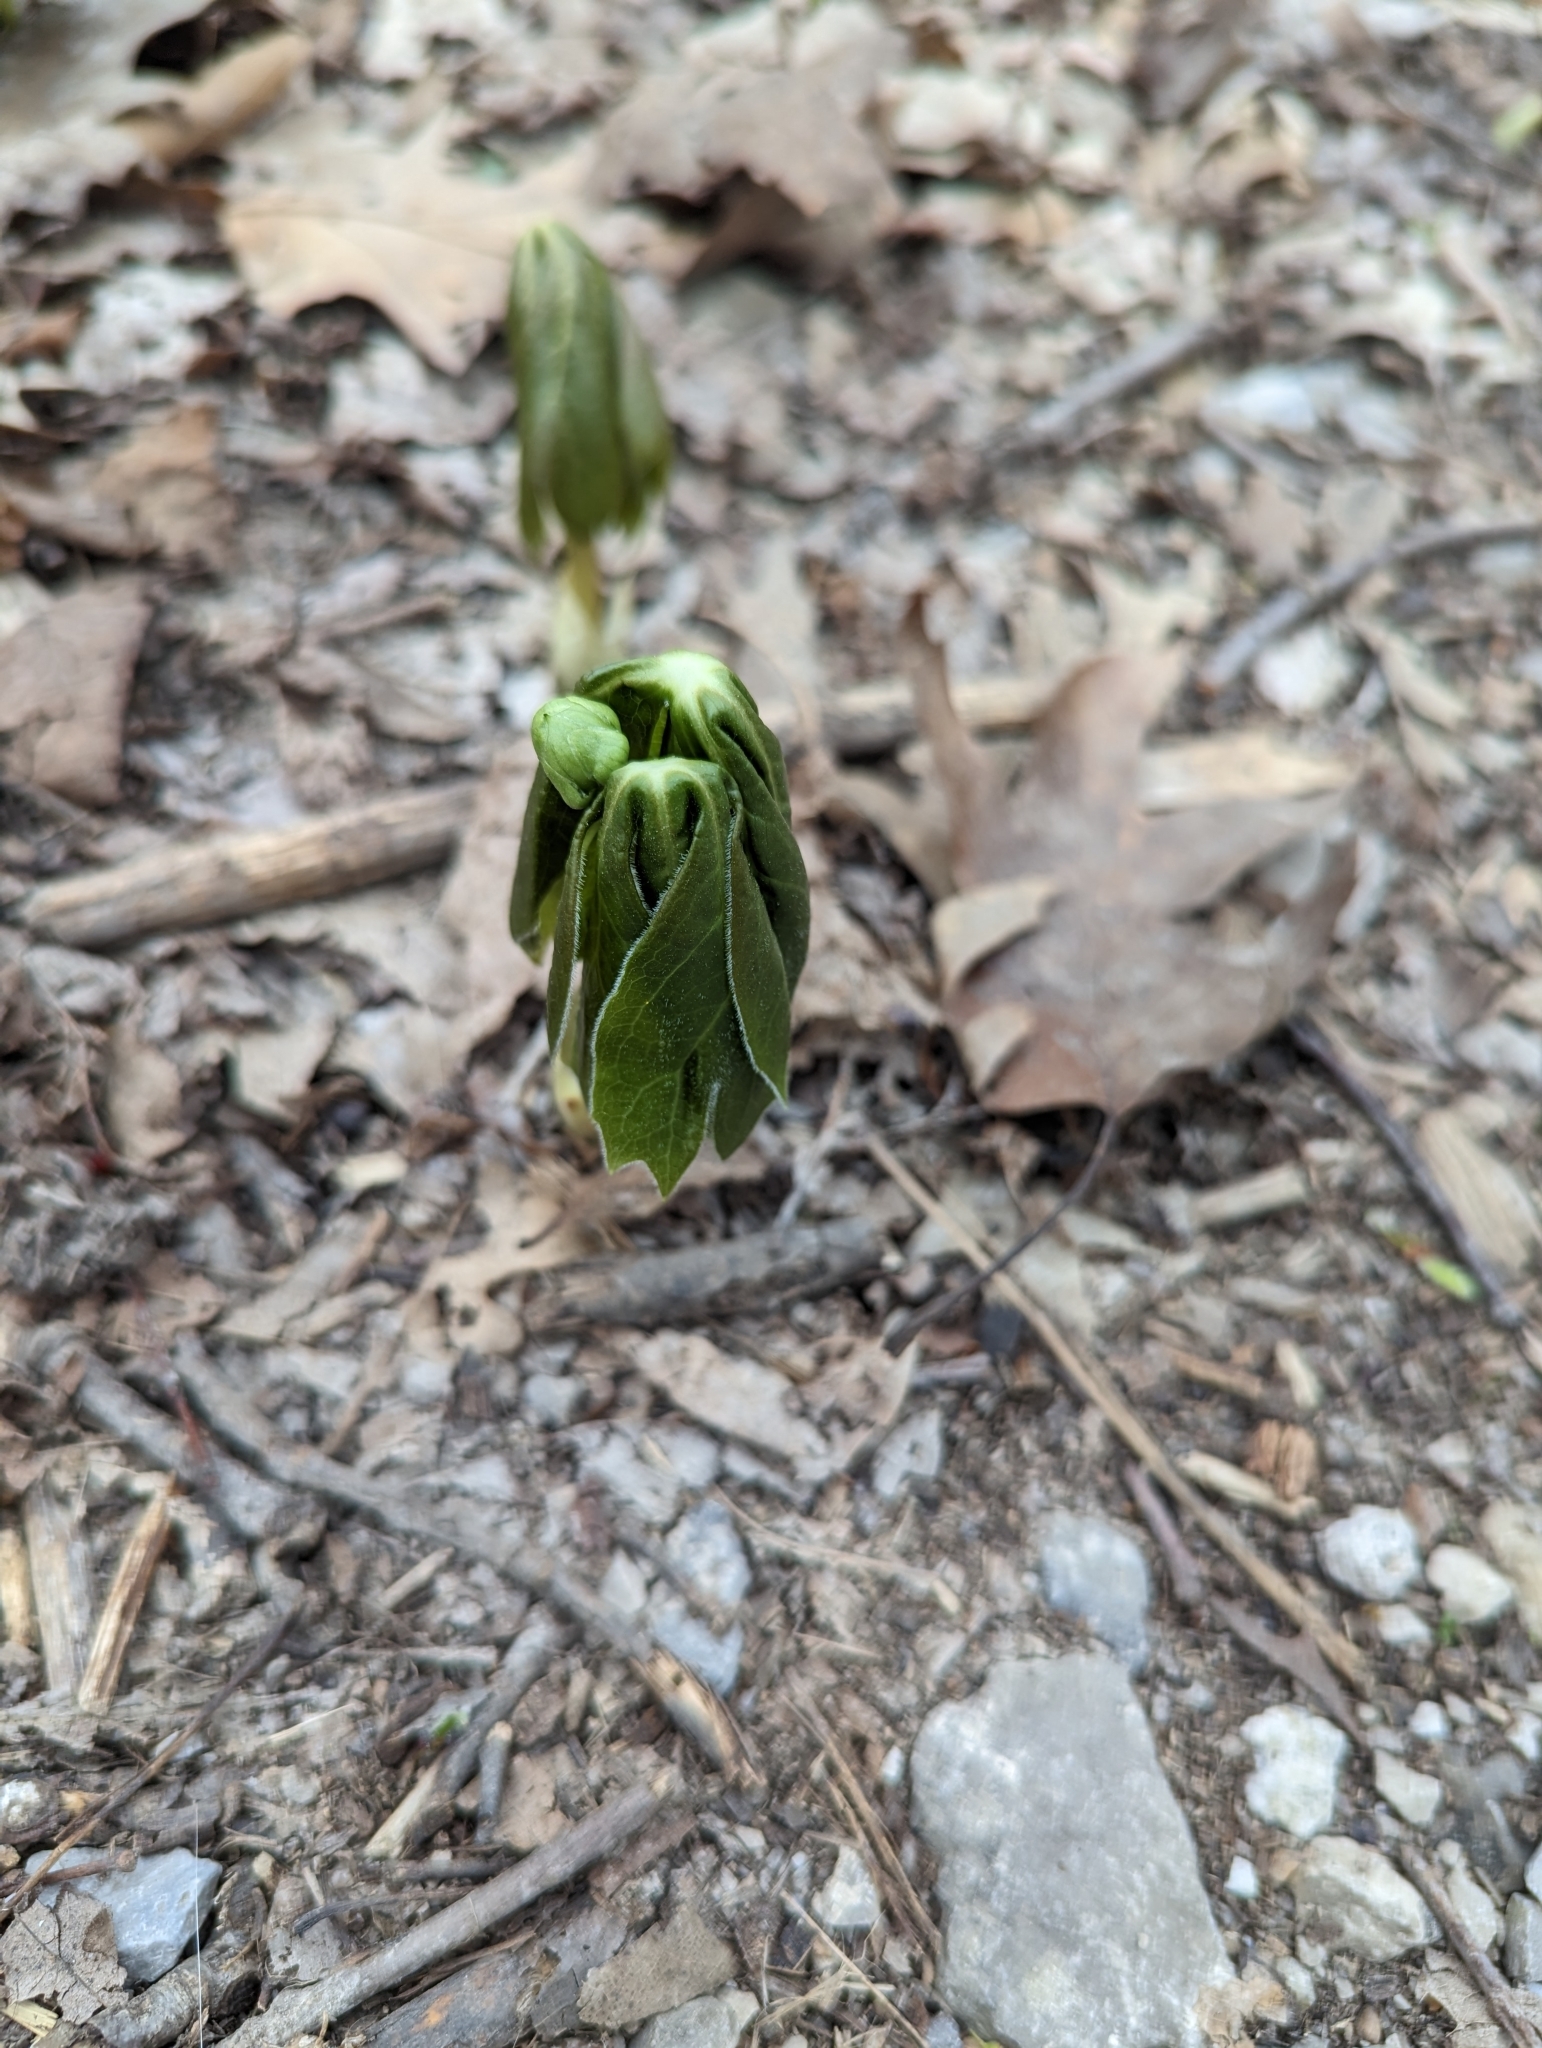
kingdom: Plantae
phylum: Tracheophyta
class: Magnoliopsida
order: Ranunculales
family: Berberidaceae
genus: Podophyllum
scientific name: Podophyllum peltatum
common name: Wild mandrake
